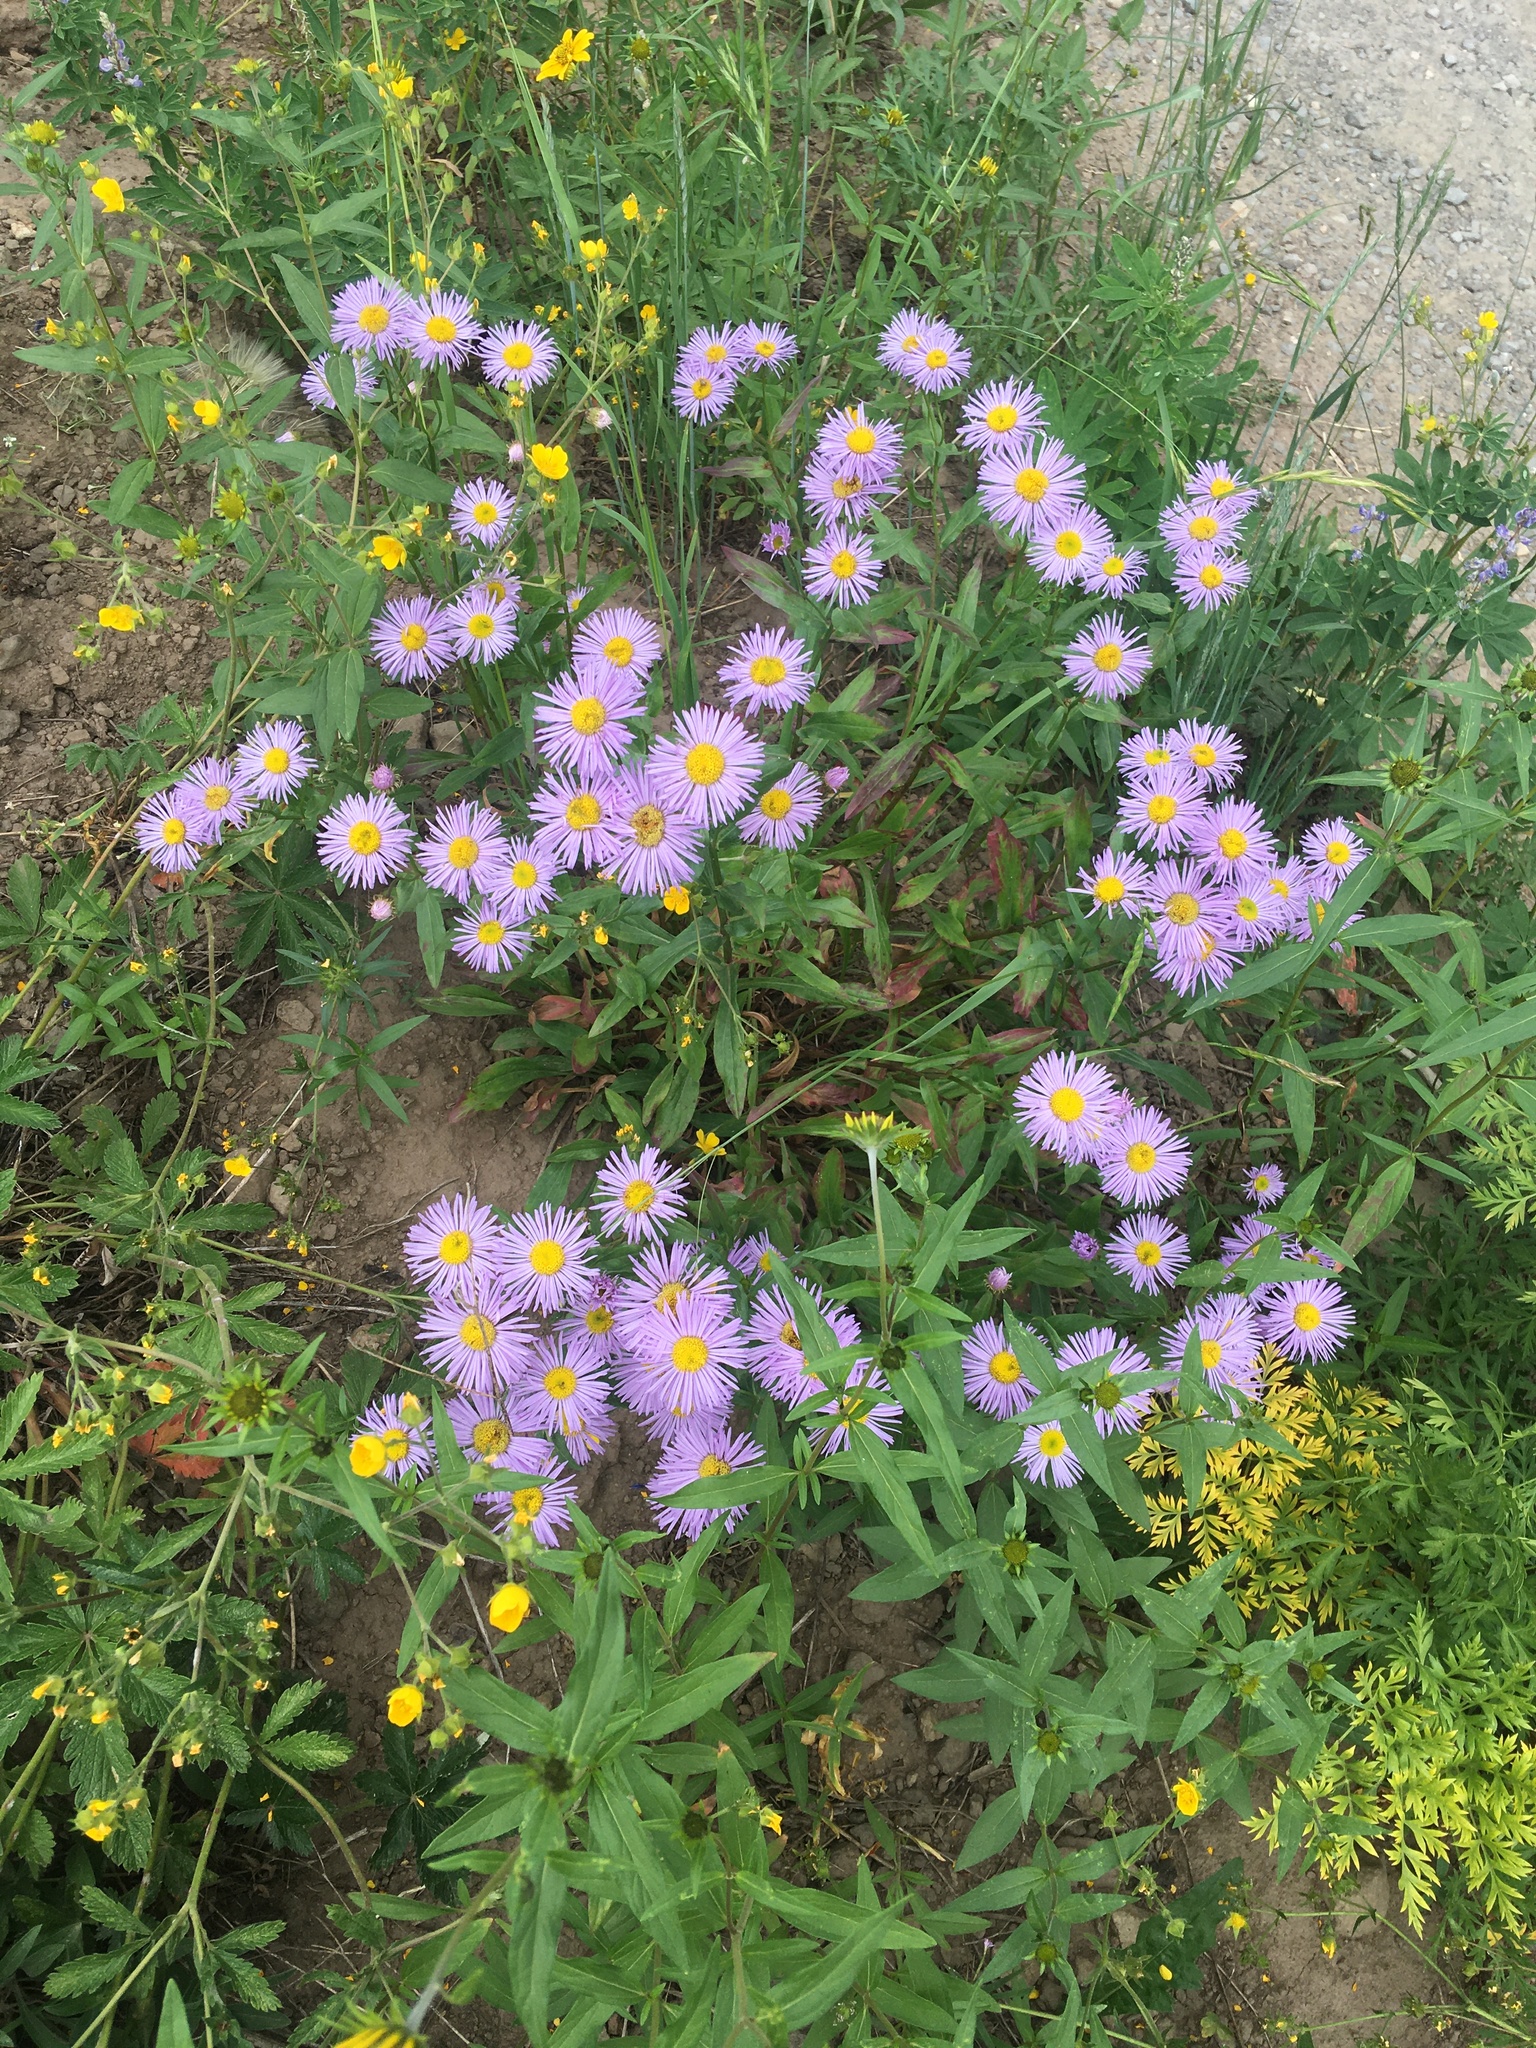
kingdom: Plantae
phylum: Tracheophyta
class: Magnoliopsida
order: Asterales
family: Asteraceae
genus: Erigeron
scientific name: Erigeron speciosus
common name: Aspen fleabane
